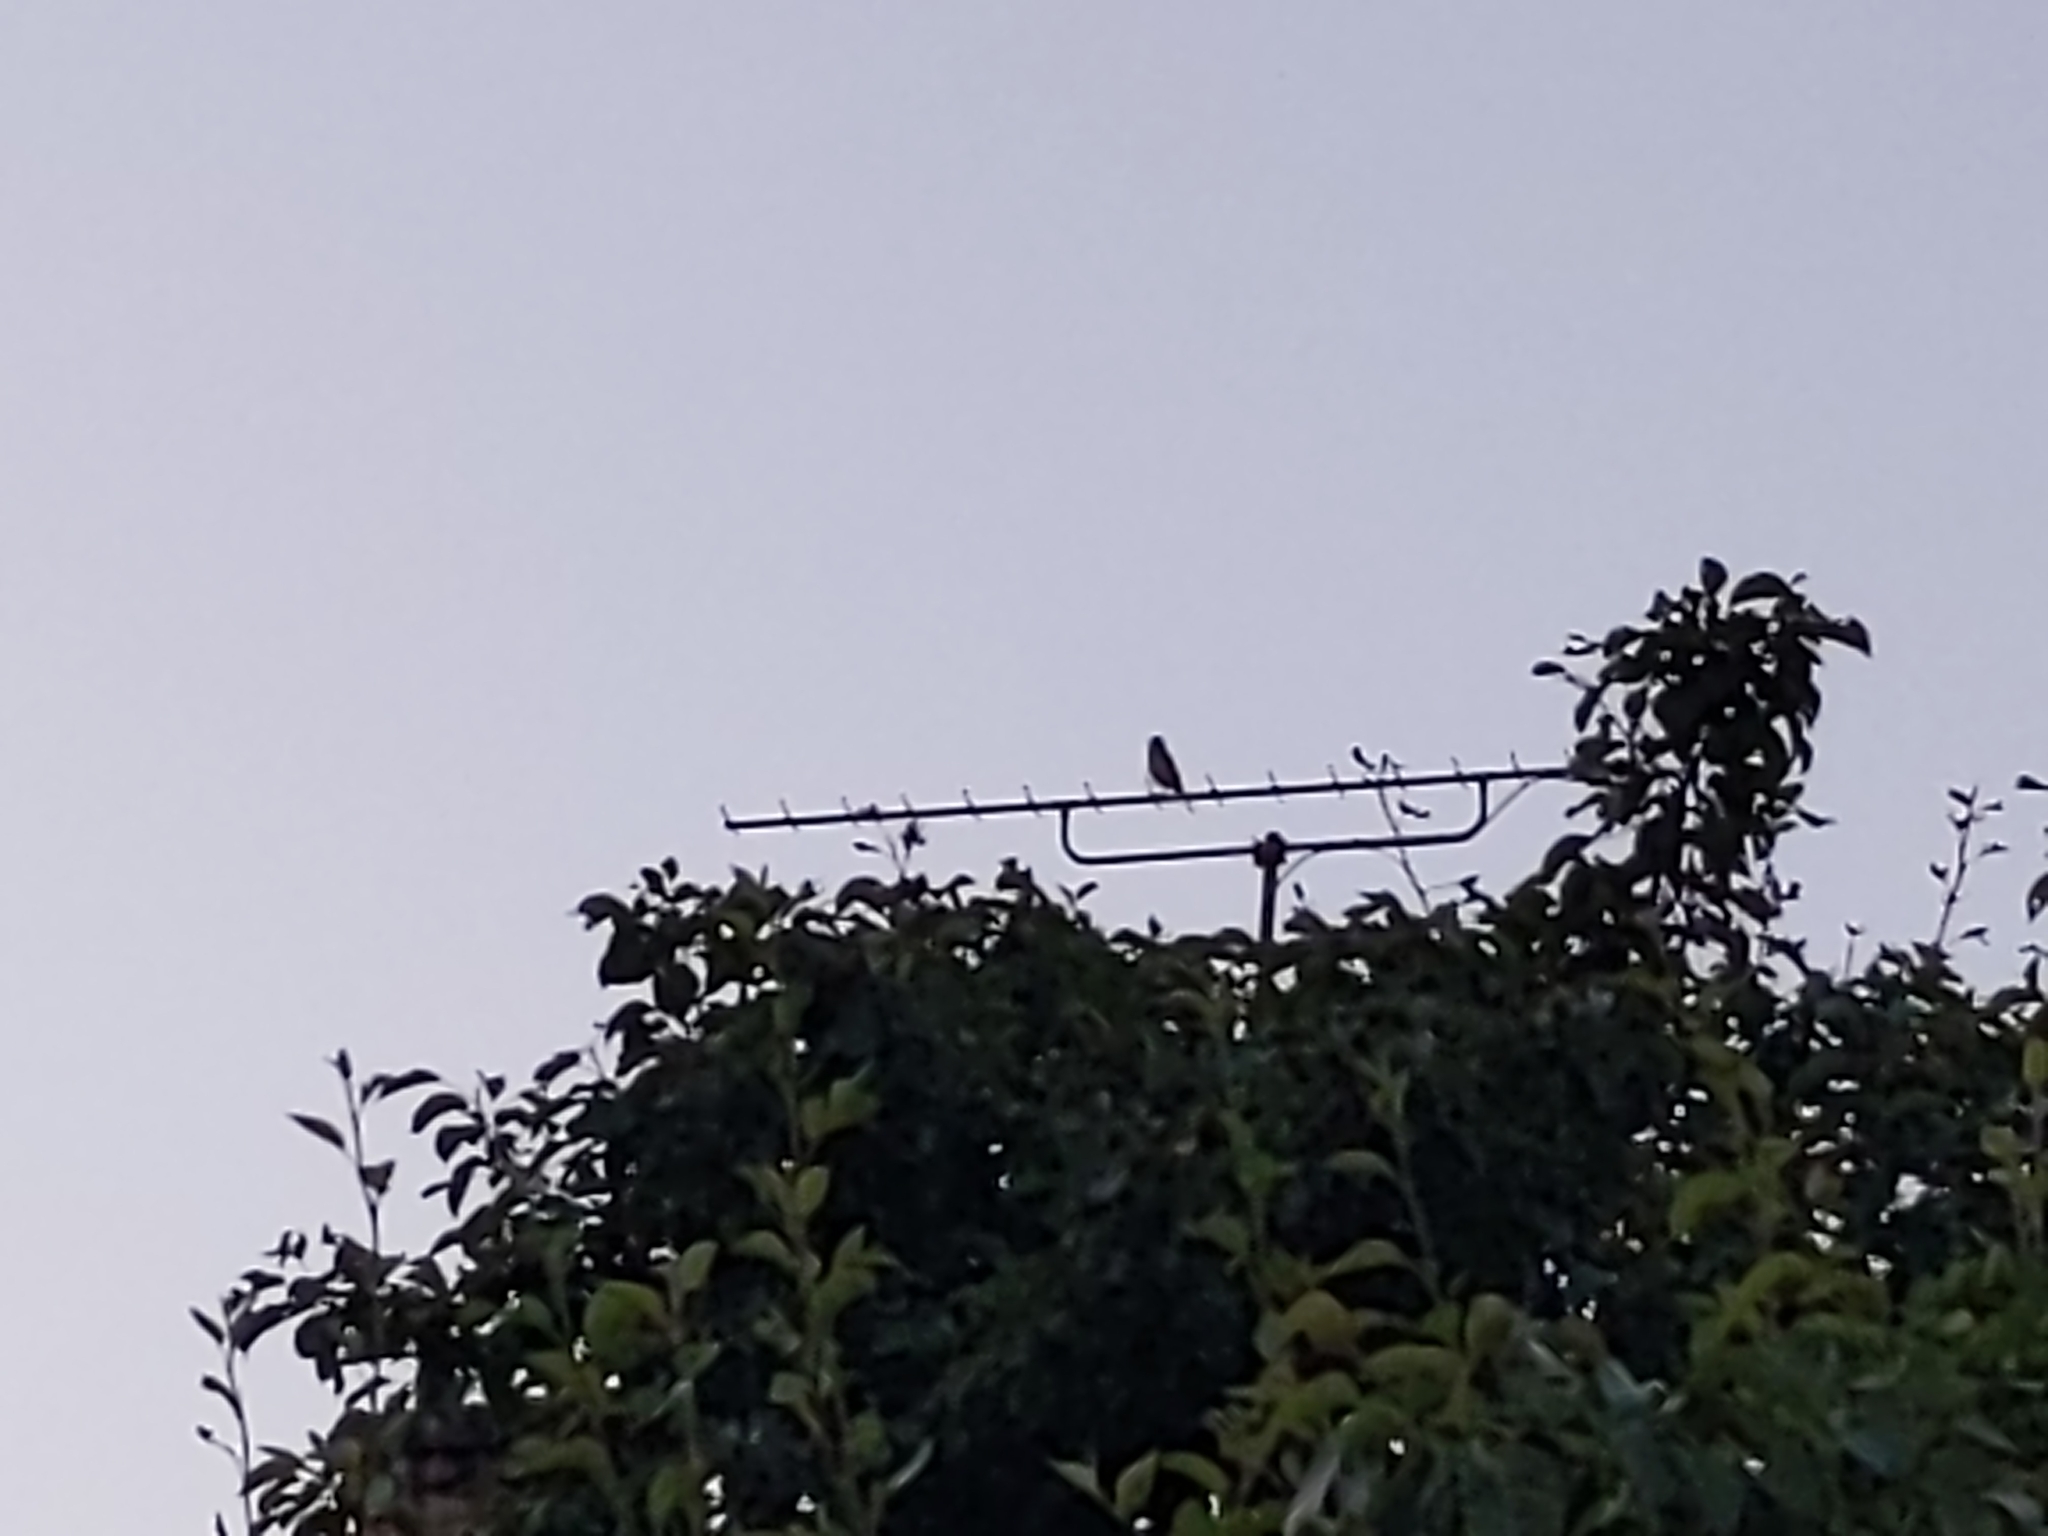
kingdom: Animalia
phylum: Chordata
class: Aves
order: Passeriformes
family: Turdidae
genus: Turdus
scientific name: Turdus philomelos
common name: Song thrush
